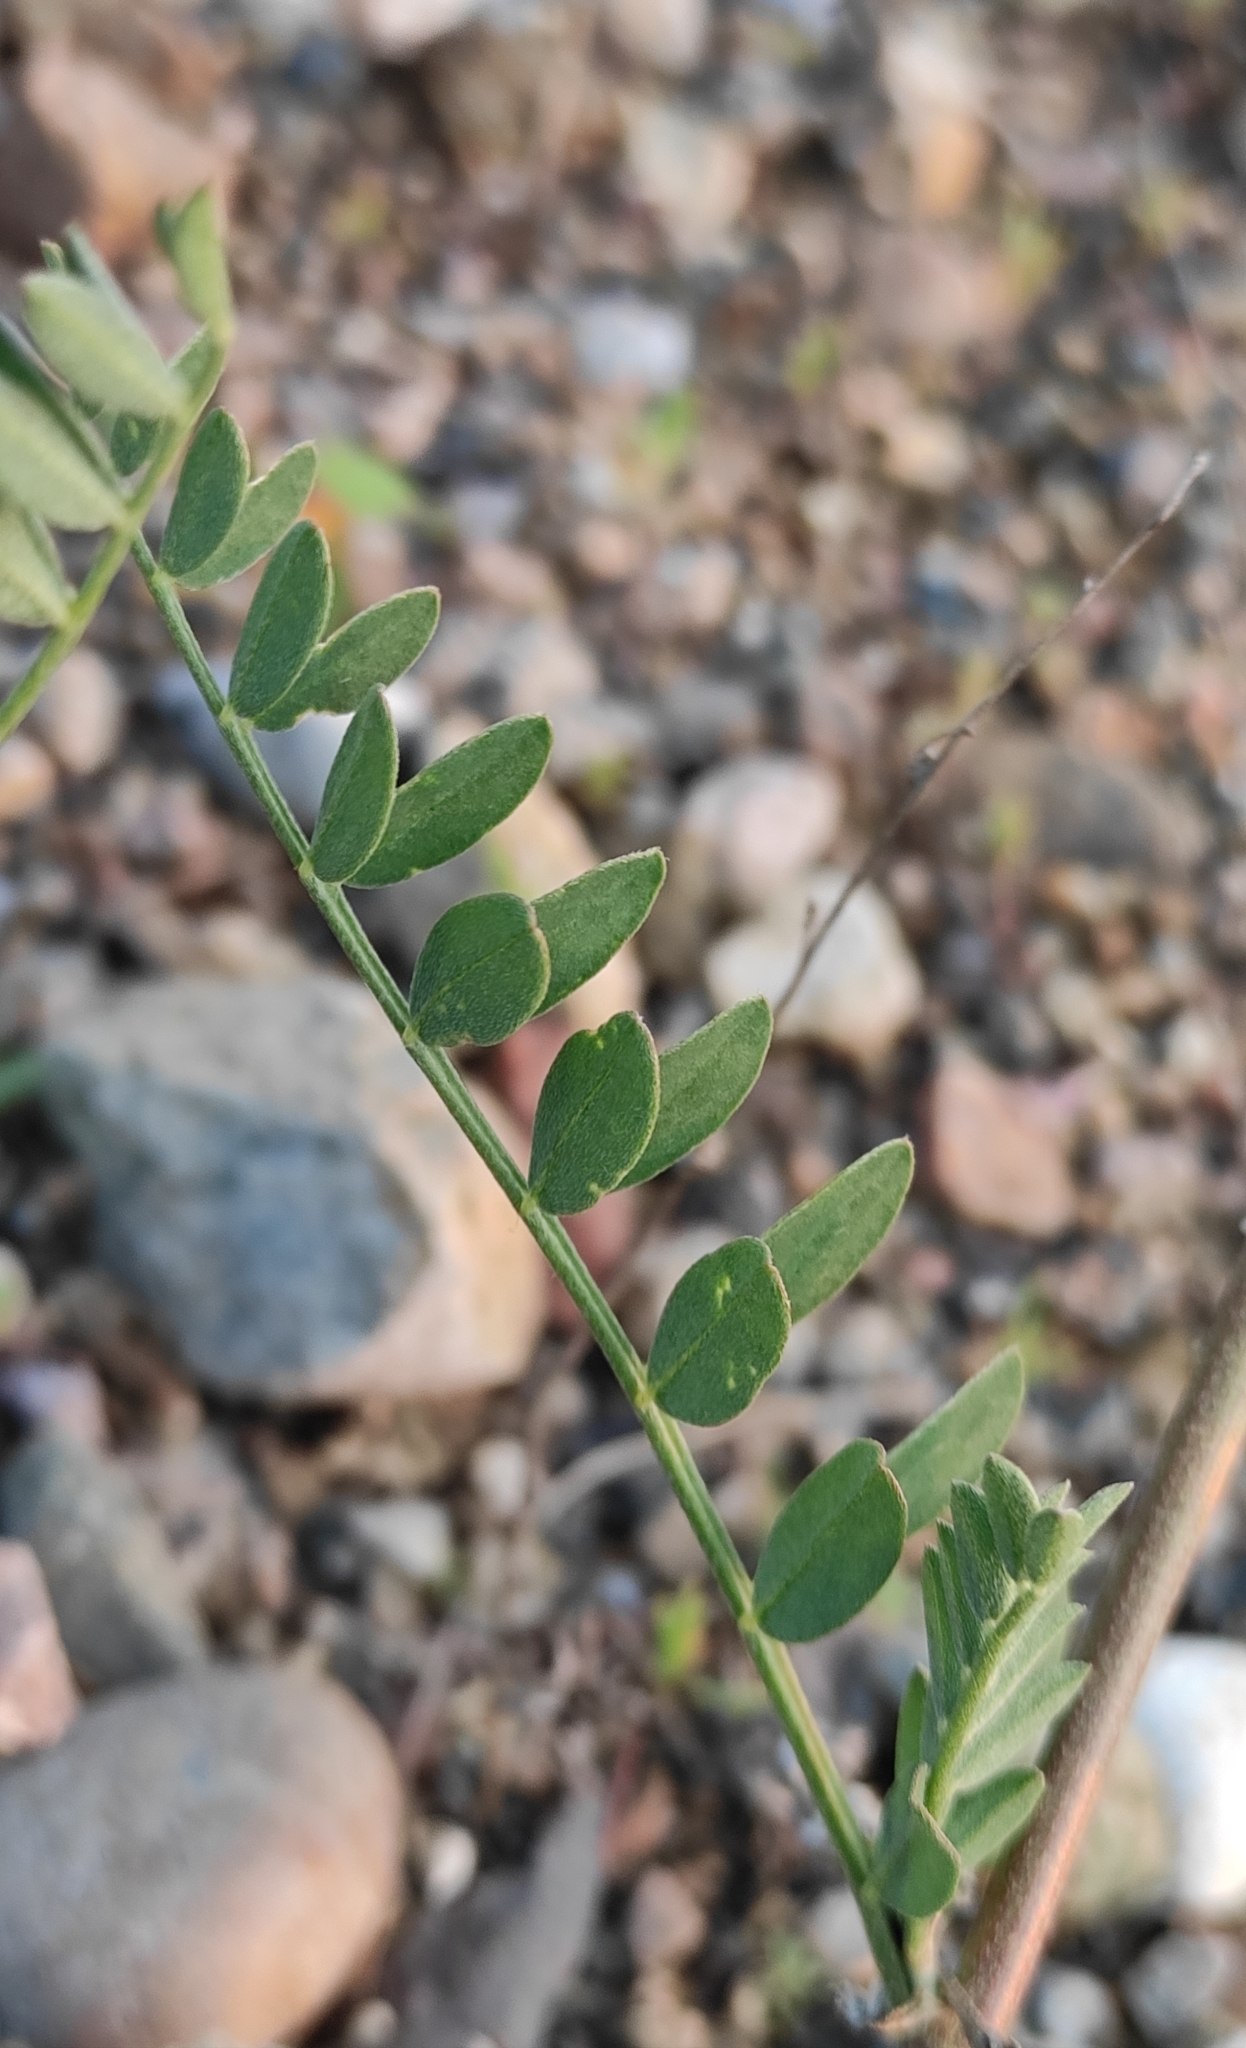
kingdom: Plantae
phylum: Tracheophyta
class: Magnoliopsida
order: Fabales
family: Fabaceae
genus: Astragalus
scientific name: Astragalus laxmannii
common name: Laxmann's milk-vetch
